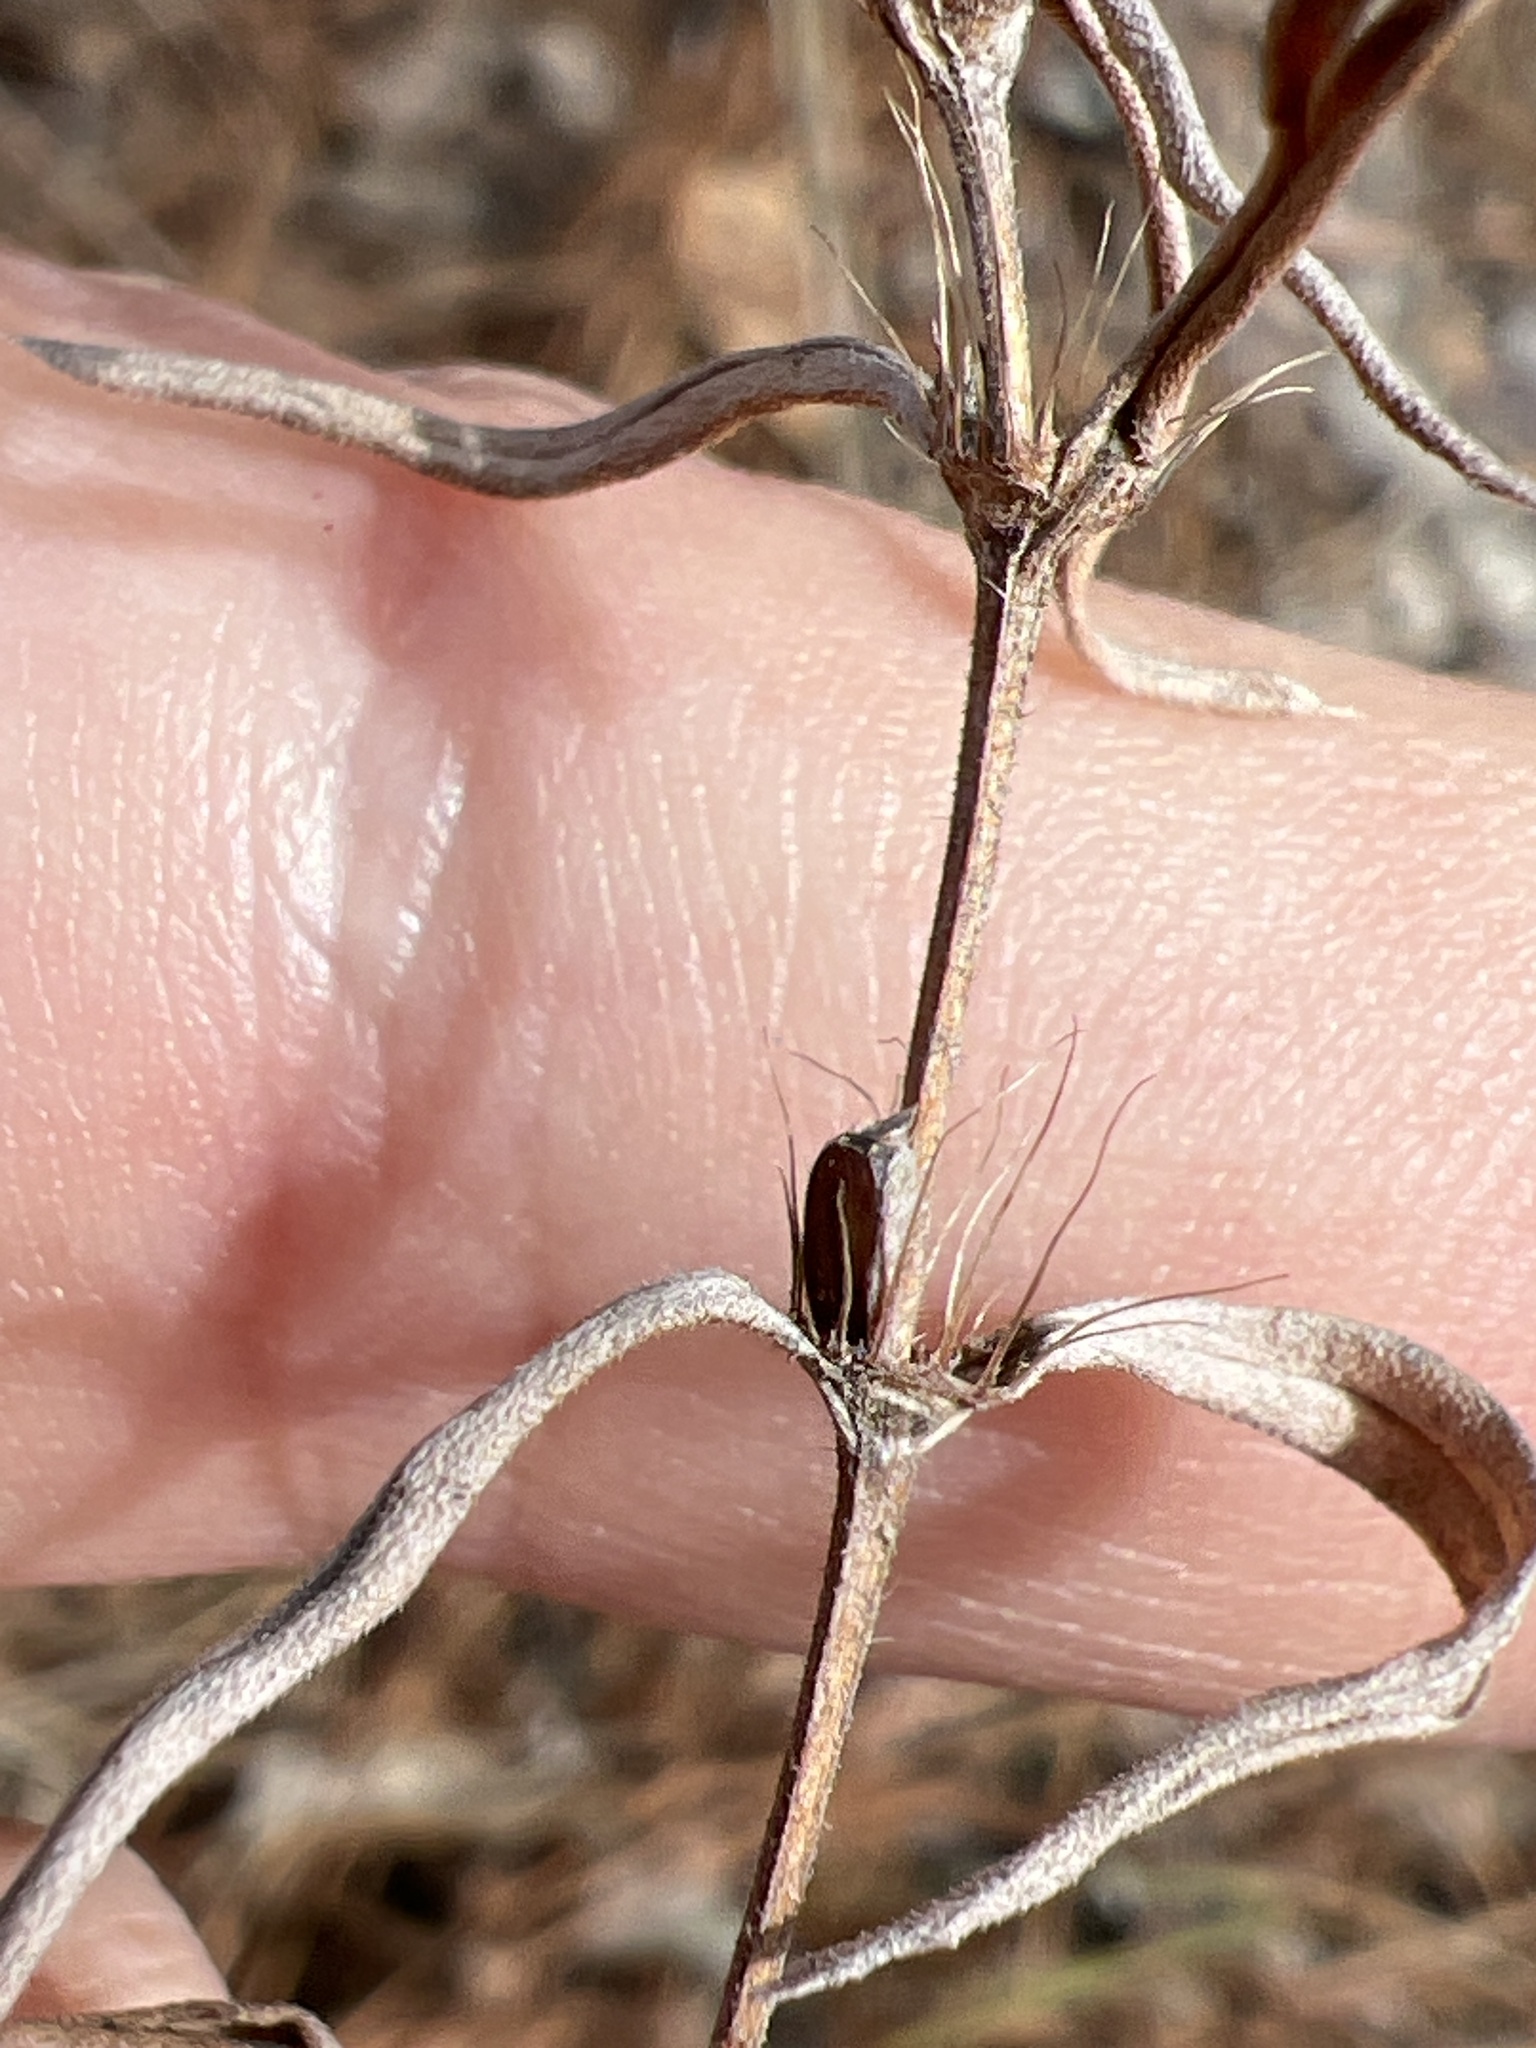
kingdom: Plantae
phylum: Tracheophyta
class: Magnoliopsida
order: Gentianales
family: Rubiaceae
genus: Hexasepalum
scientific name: Hexasepalum teres
